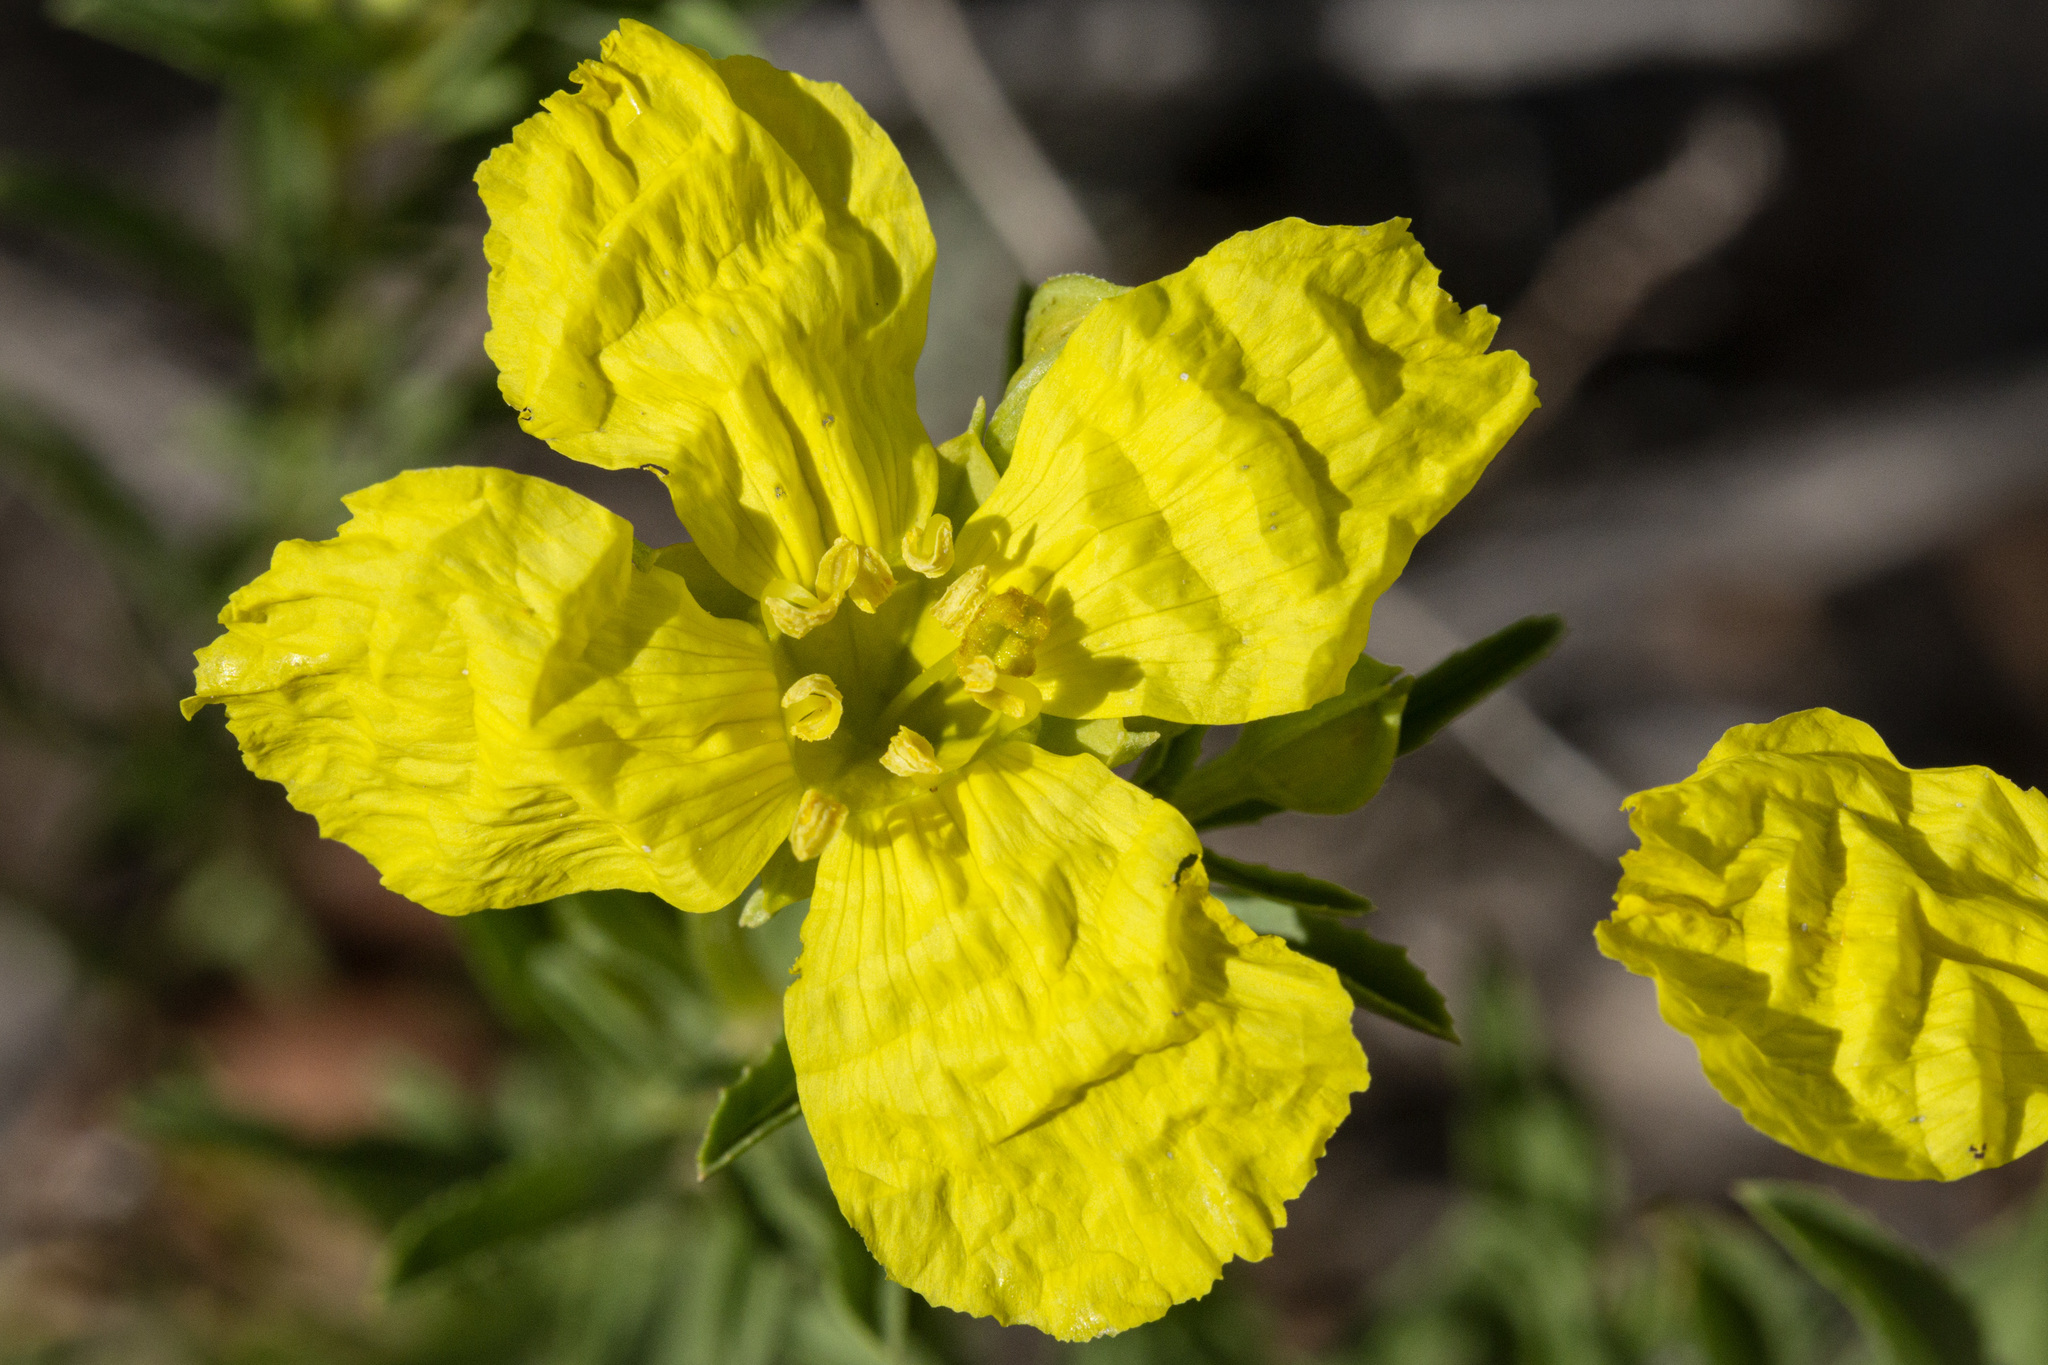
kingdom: Plantae
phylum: Tracheophyta
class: Magnoliopsida
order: Myrtales
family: Onagraceae
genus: Oenothera
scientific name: Oenothera
